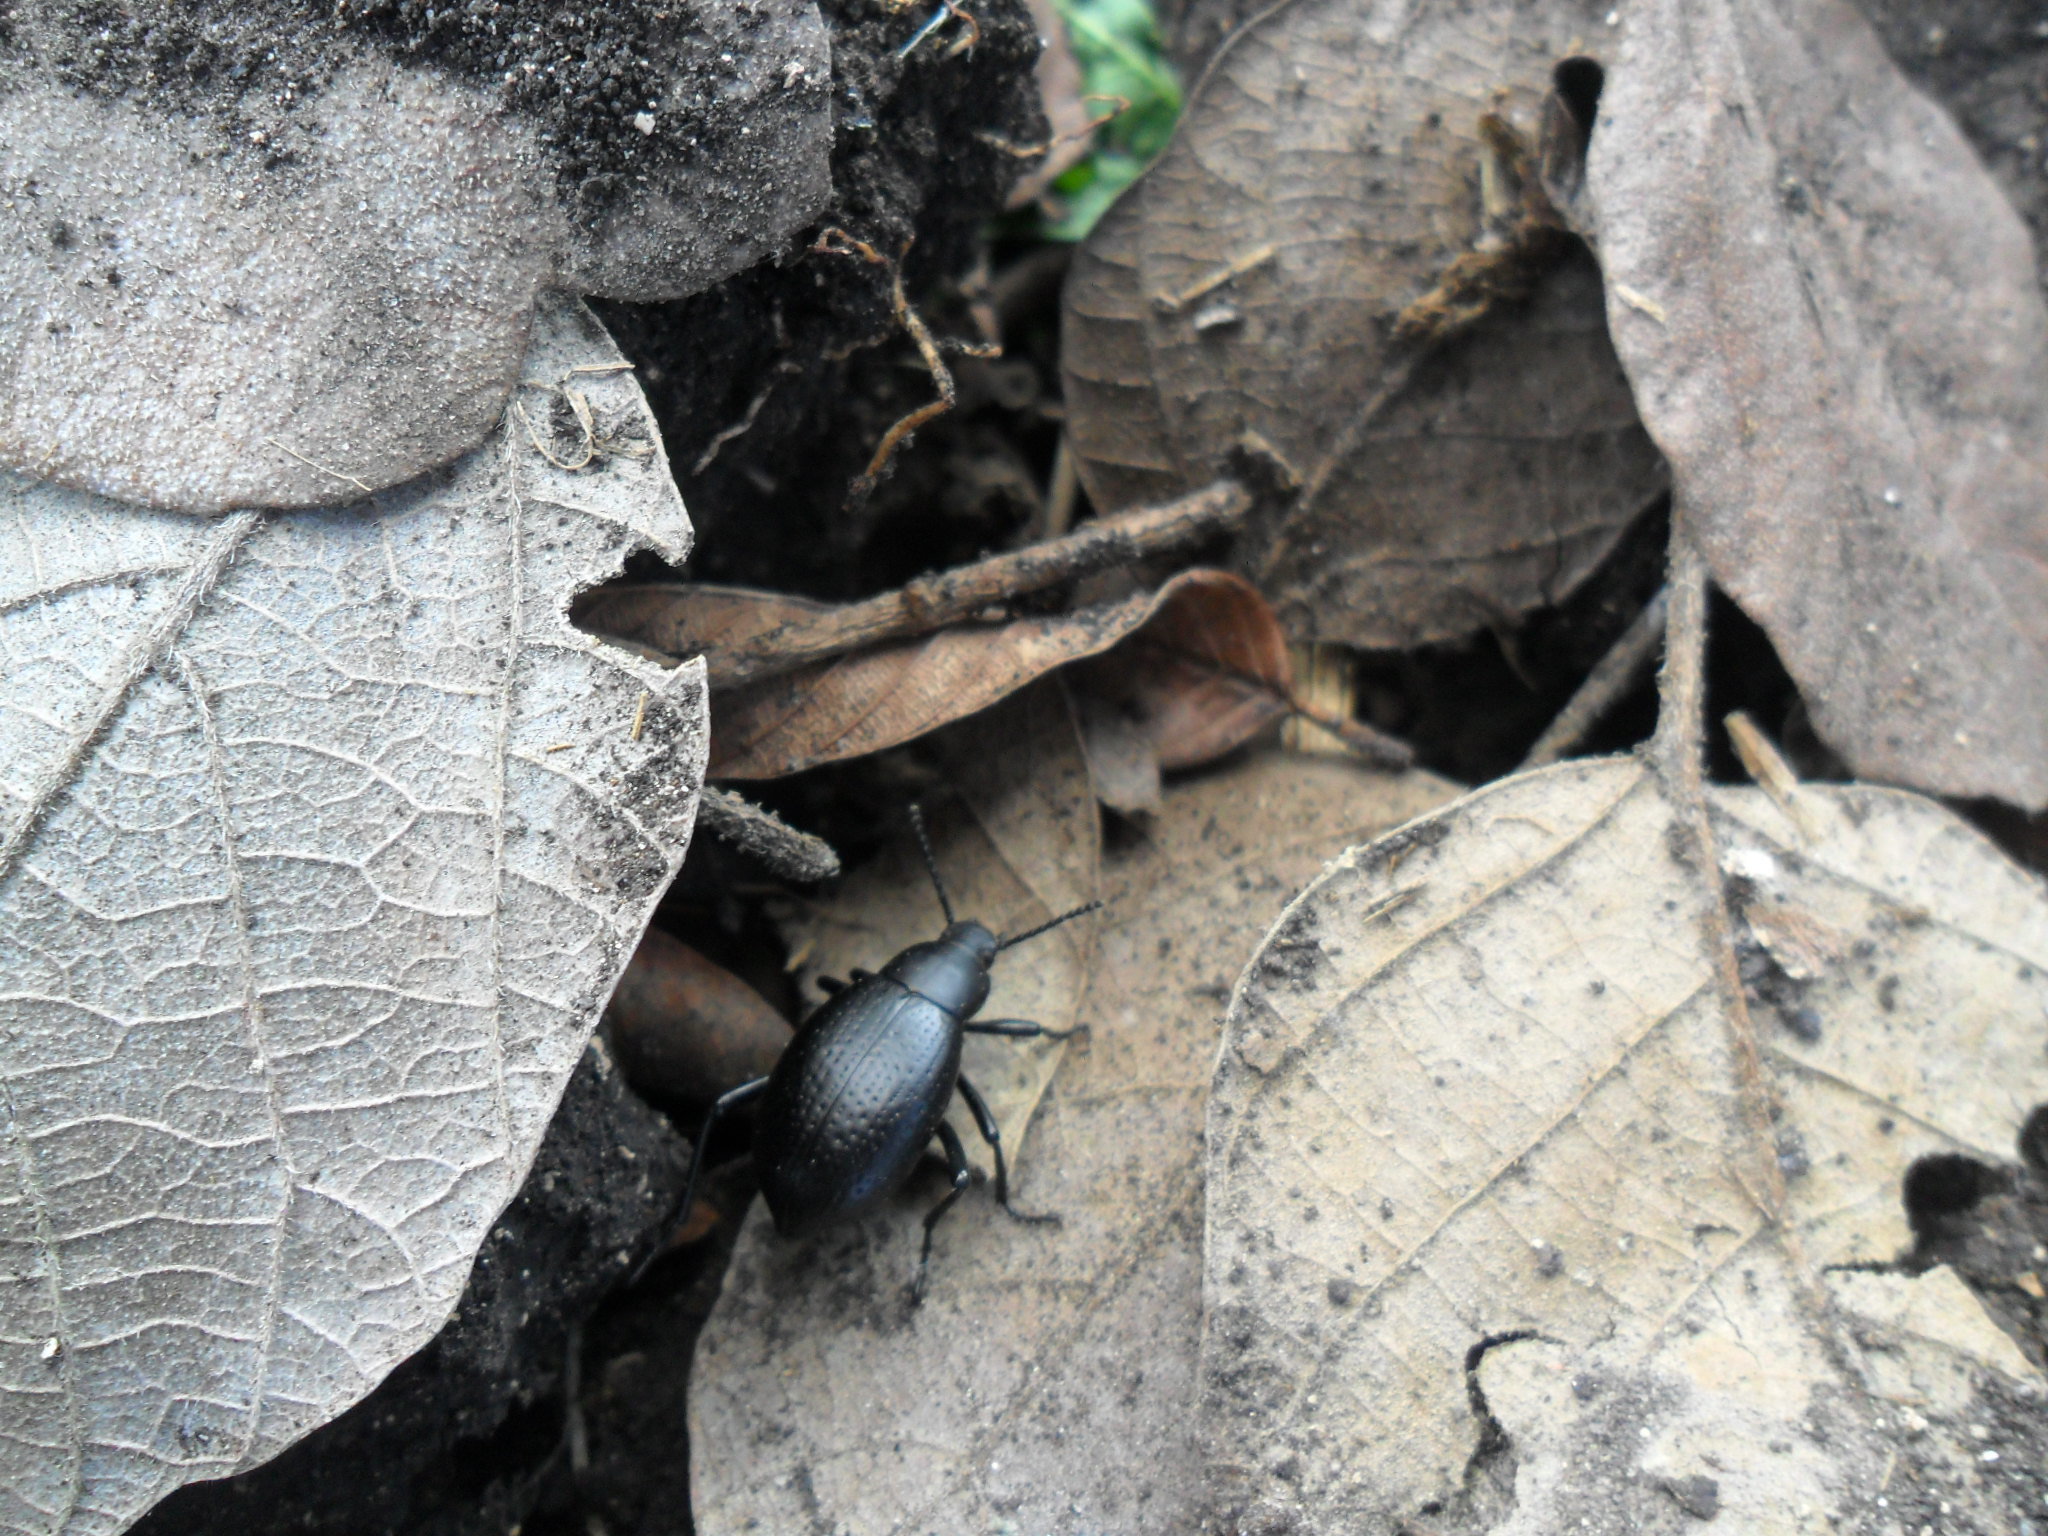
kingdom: Animalia
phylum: Arthropoda
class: Insecta
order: Coleoptera
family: Tenebrionidae
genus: Eleodes
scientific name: Eleodes goryi
